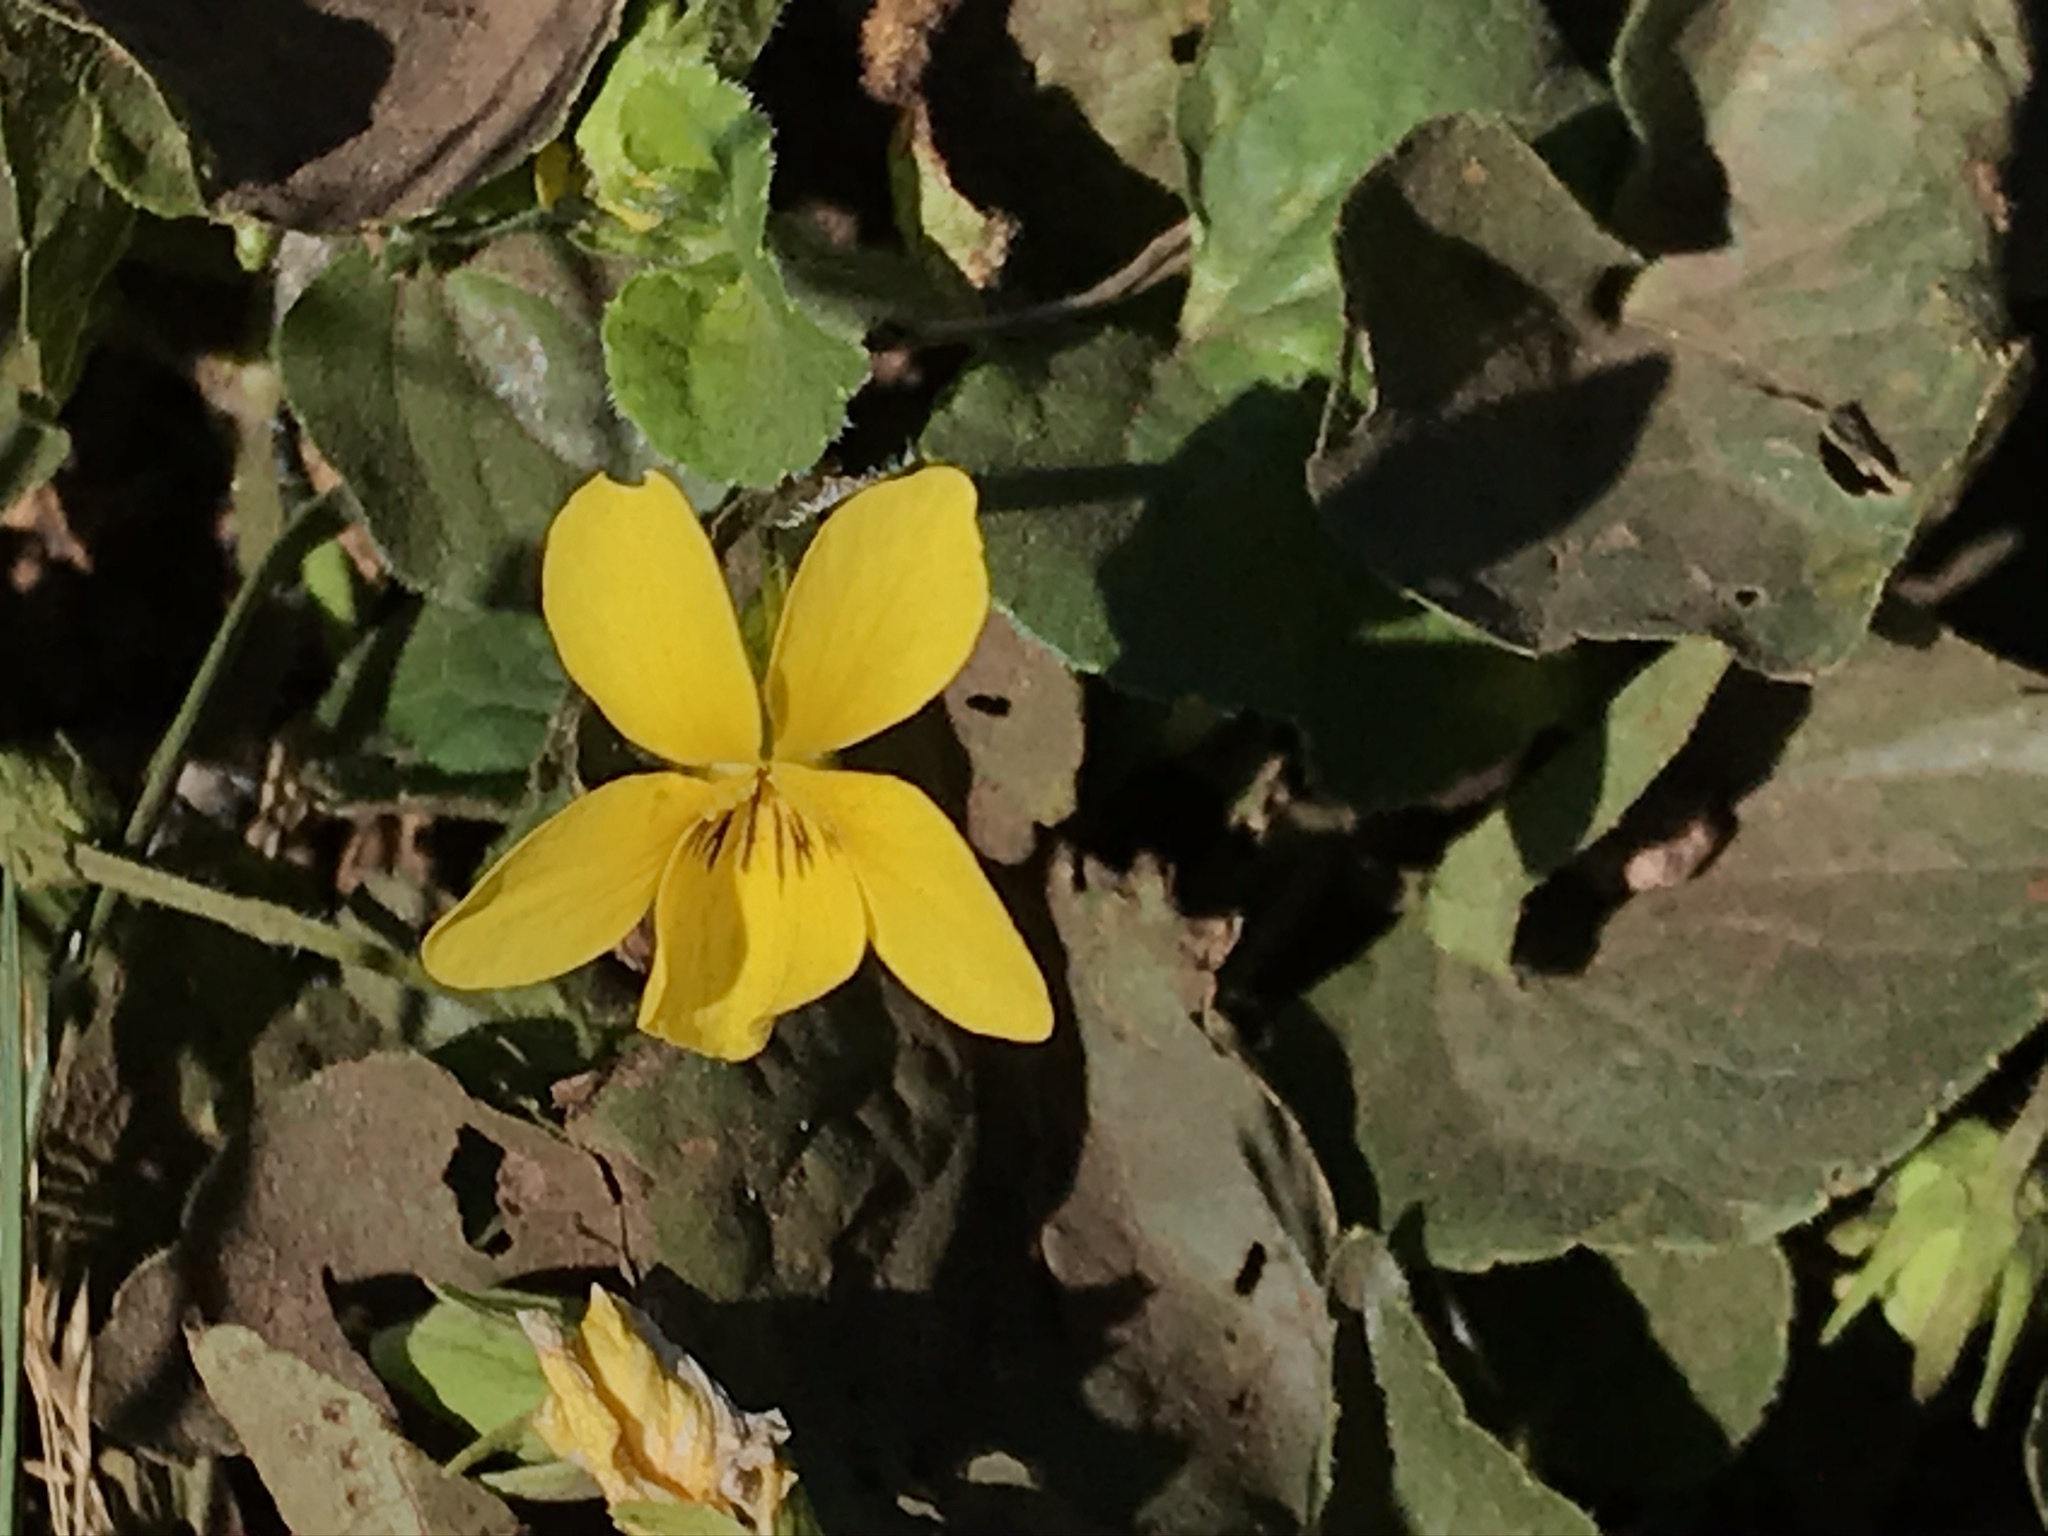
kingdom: Plantae
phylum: Tracheophyta
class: Magnoliopsida
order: Malpighiales
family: Violaceae
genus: Viola
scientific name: Viola glabella
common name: Stream violet
